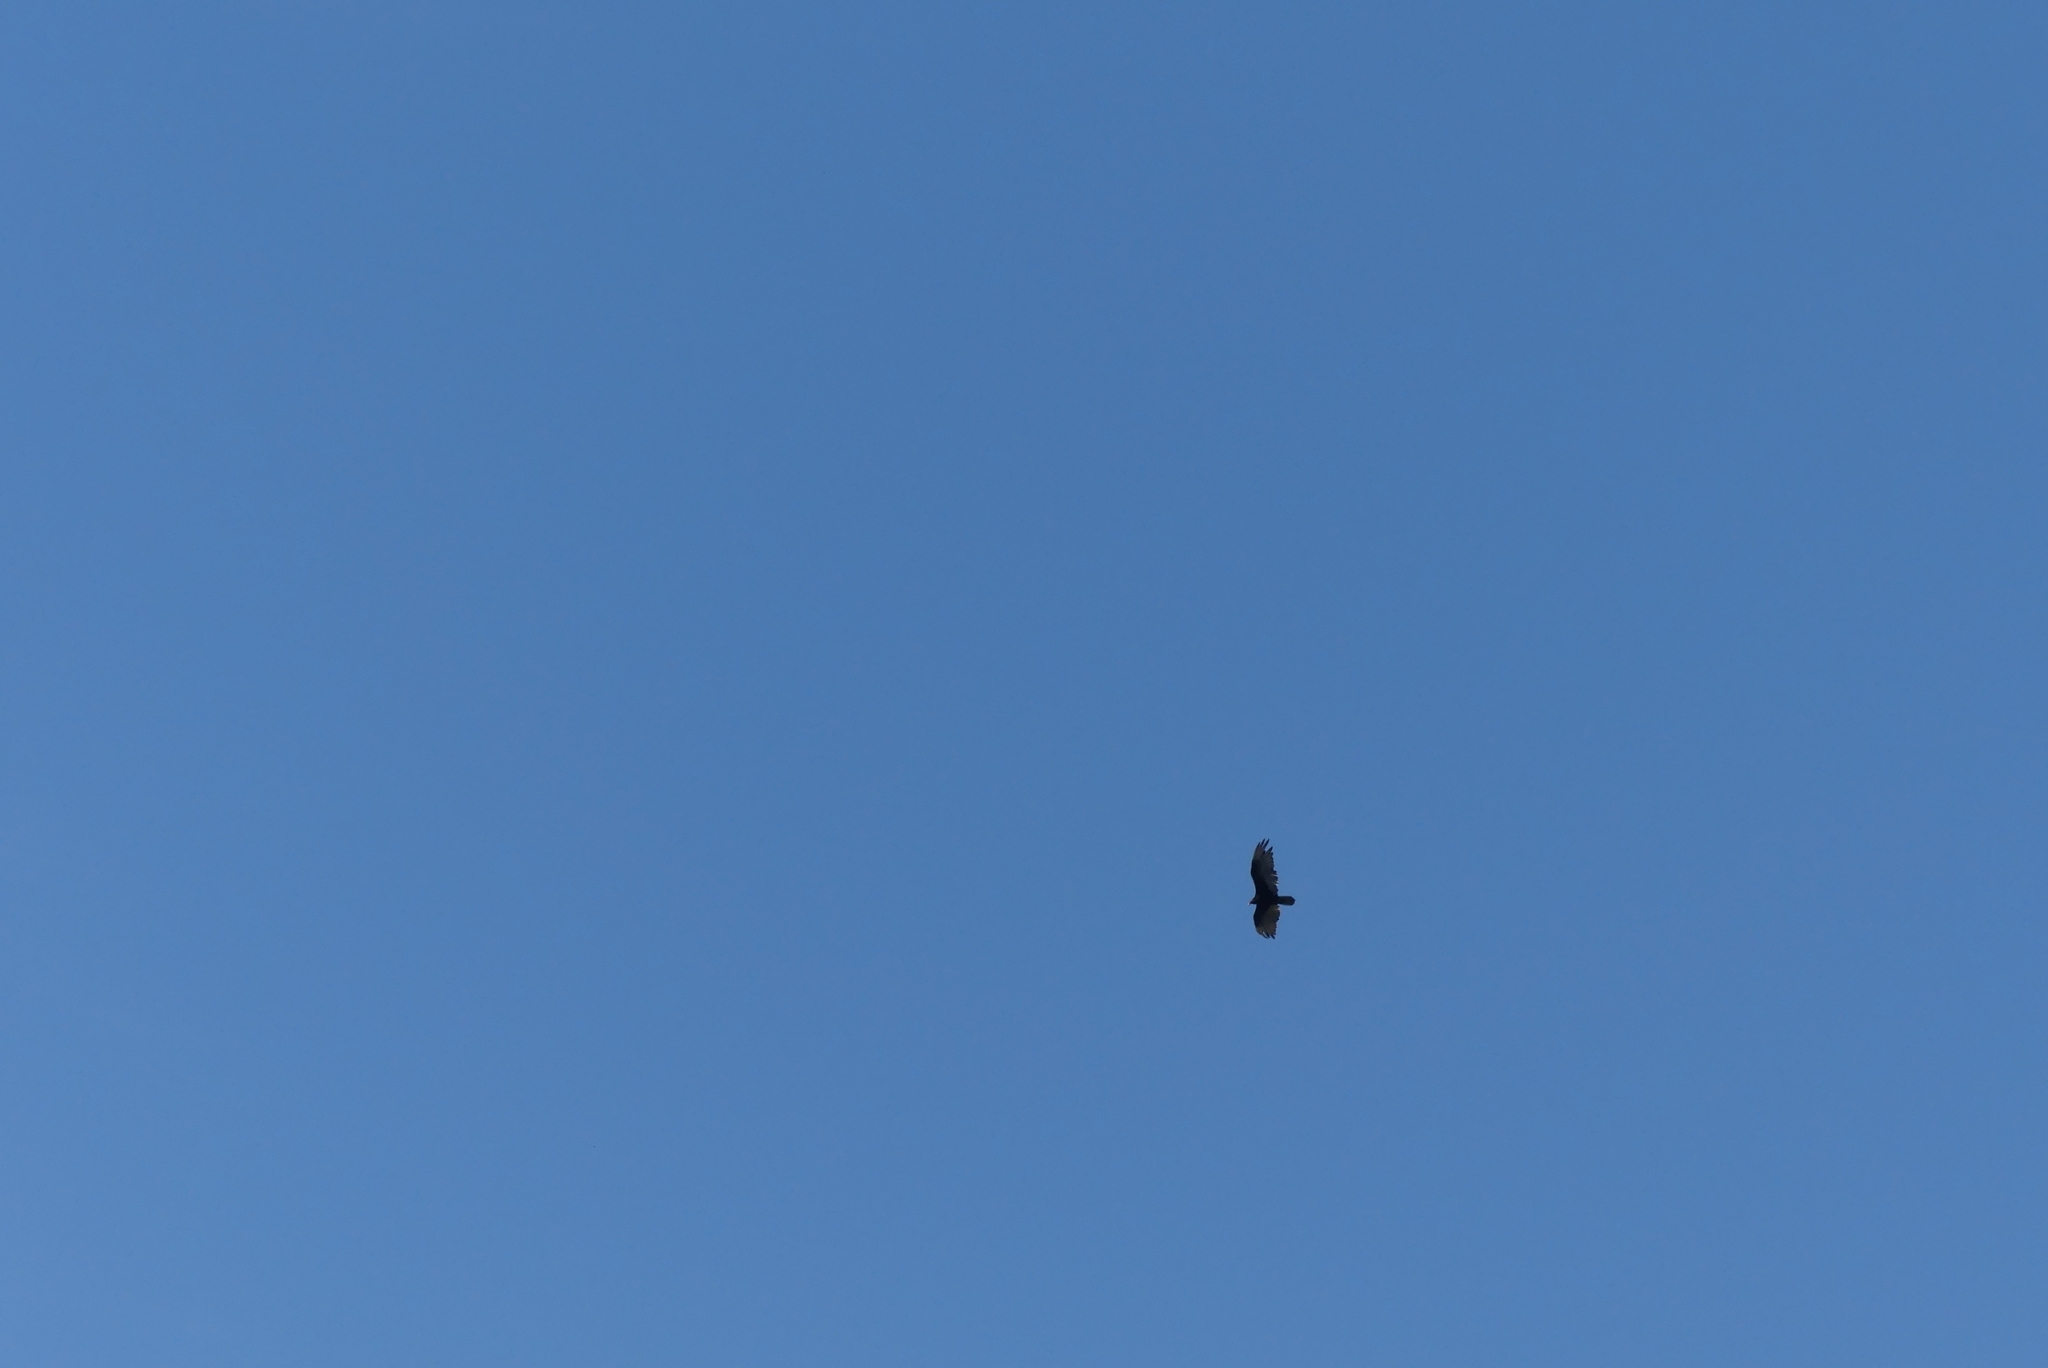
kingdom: Animalia
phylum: Chordata
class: Aves
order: Accipitriformes
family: Cathartidae
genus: Cathartes
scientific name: Cathartes aura
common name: Turkey vulture
